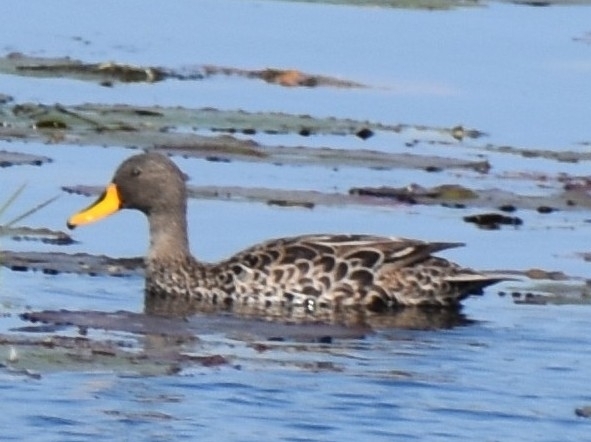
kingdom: Animalia
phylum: Chordata
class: Aves
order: Anseriformes
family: Anatidae
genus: Anas
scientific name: Anas undulata
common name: Yellow-billed duck
